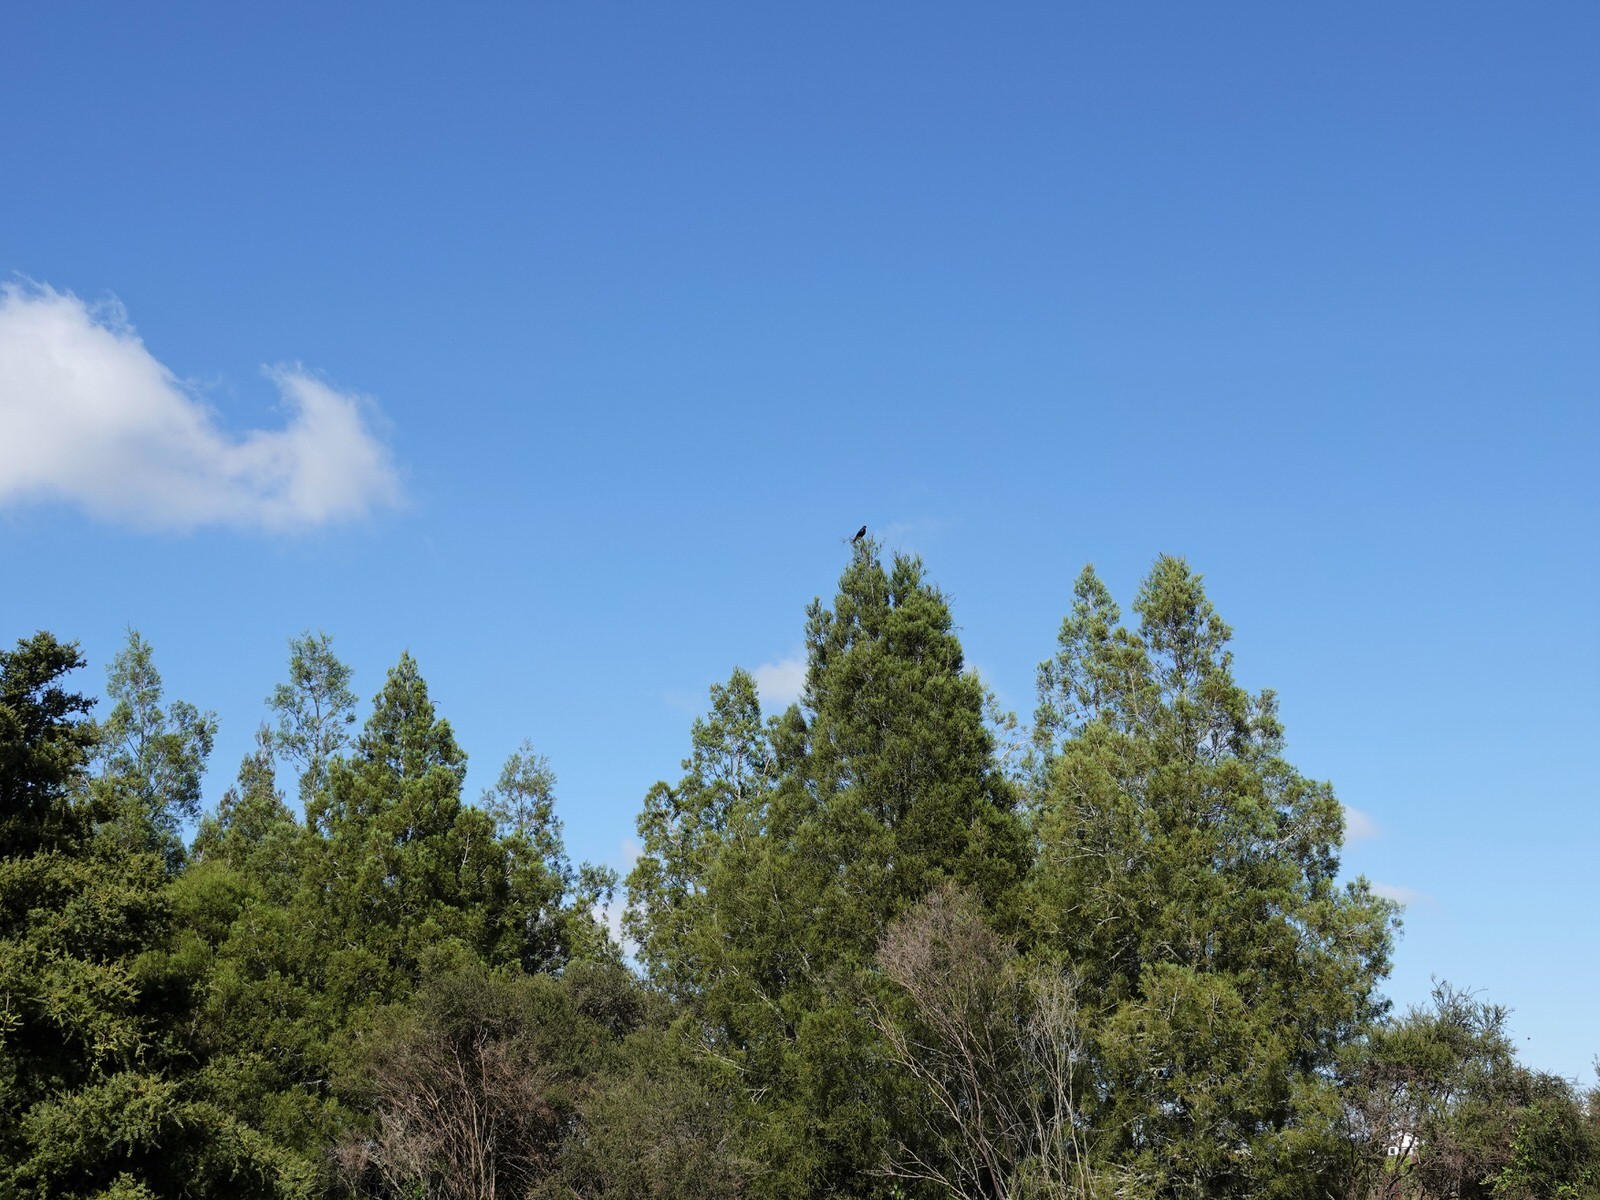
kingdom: Animalia
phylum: Chordata
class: Aves
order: Passeriformes
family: Meliphagidae
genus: Prosthemadera
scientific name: Prosthemadera novaeseelandiae
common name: Tui
